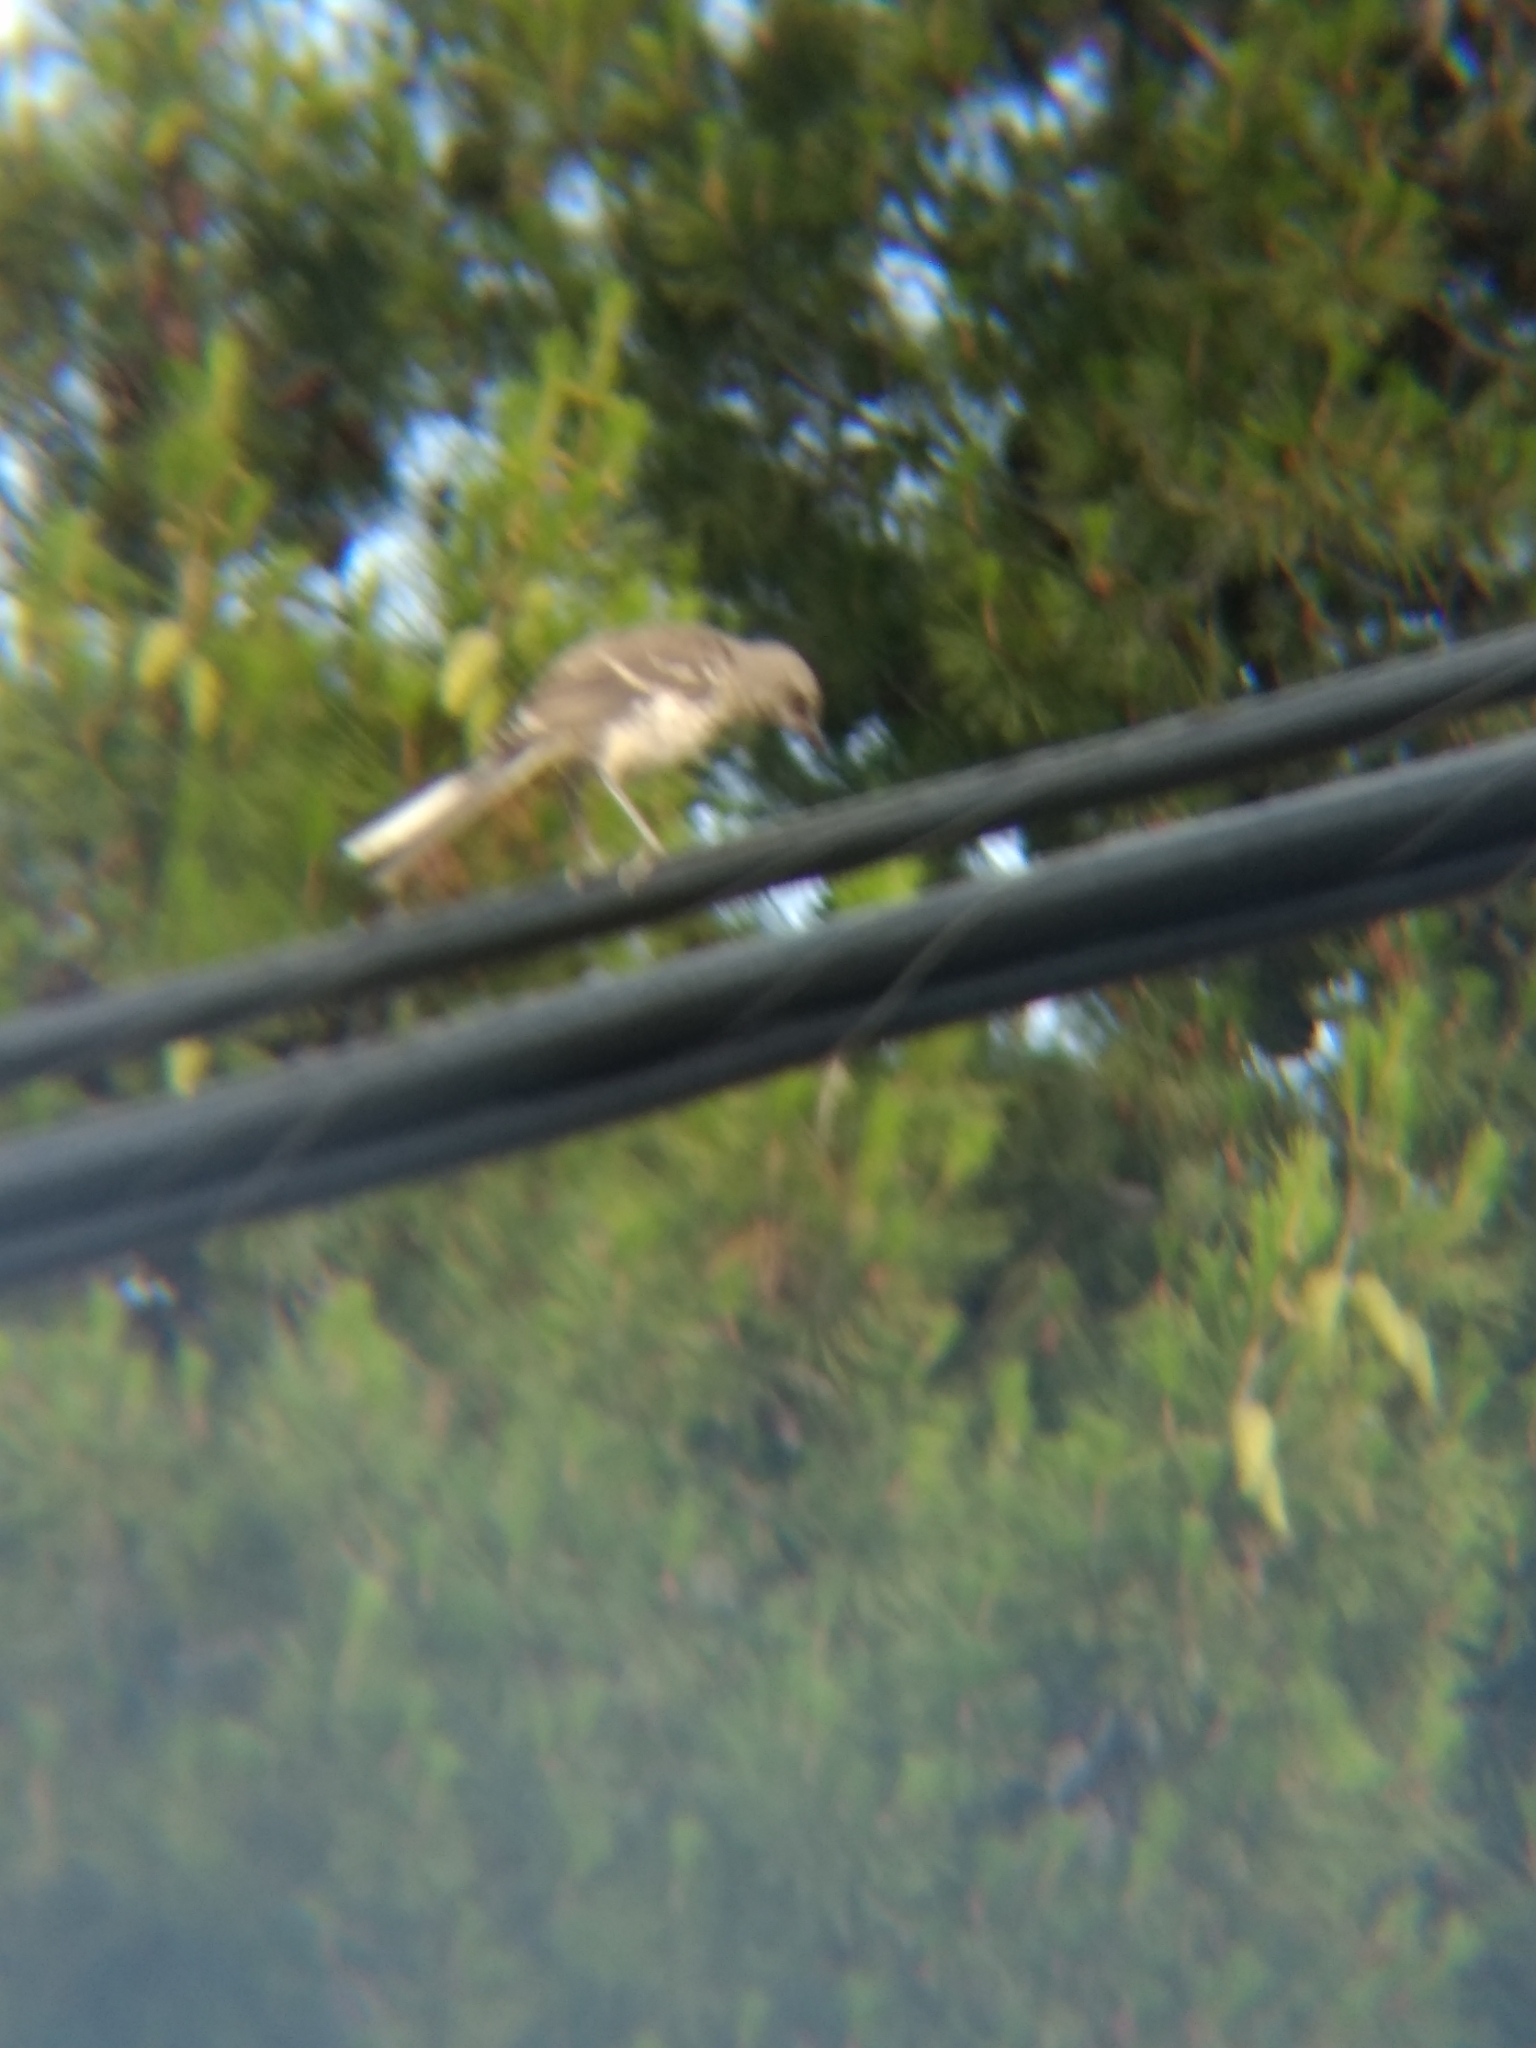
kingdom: Animalia
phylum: Chordata
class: Aves
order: Passeriformes
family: Mimidae
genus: Mimus
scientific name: Mimus polyglottos
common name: Northern mockingbird
